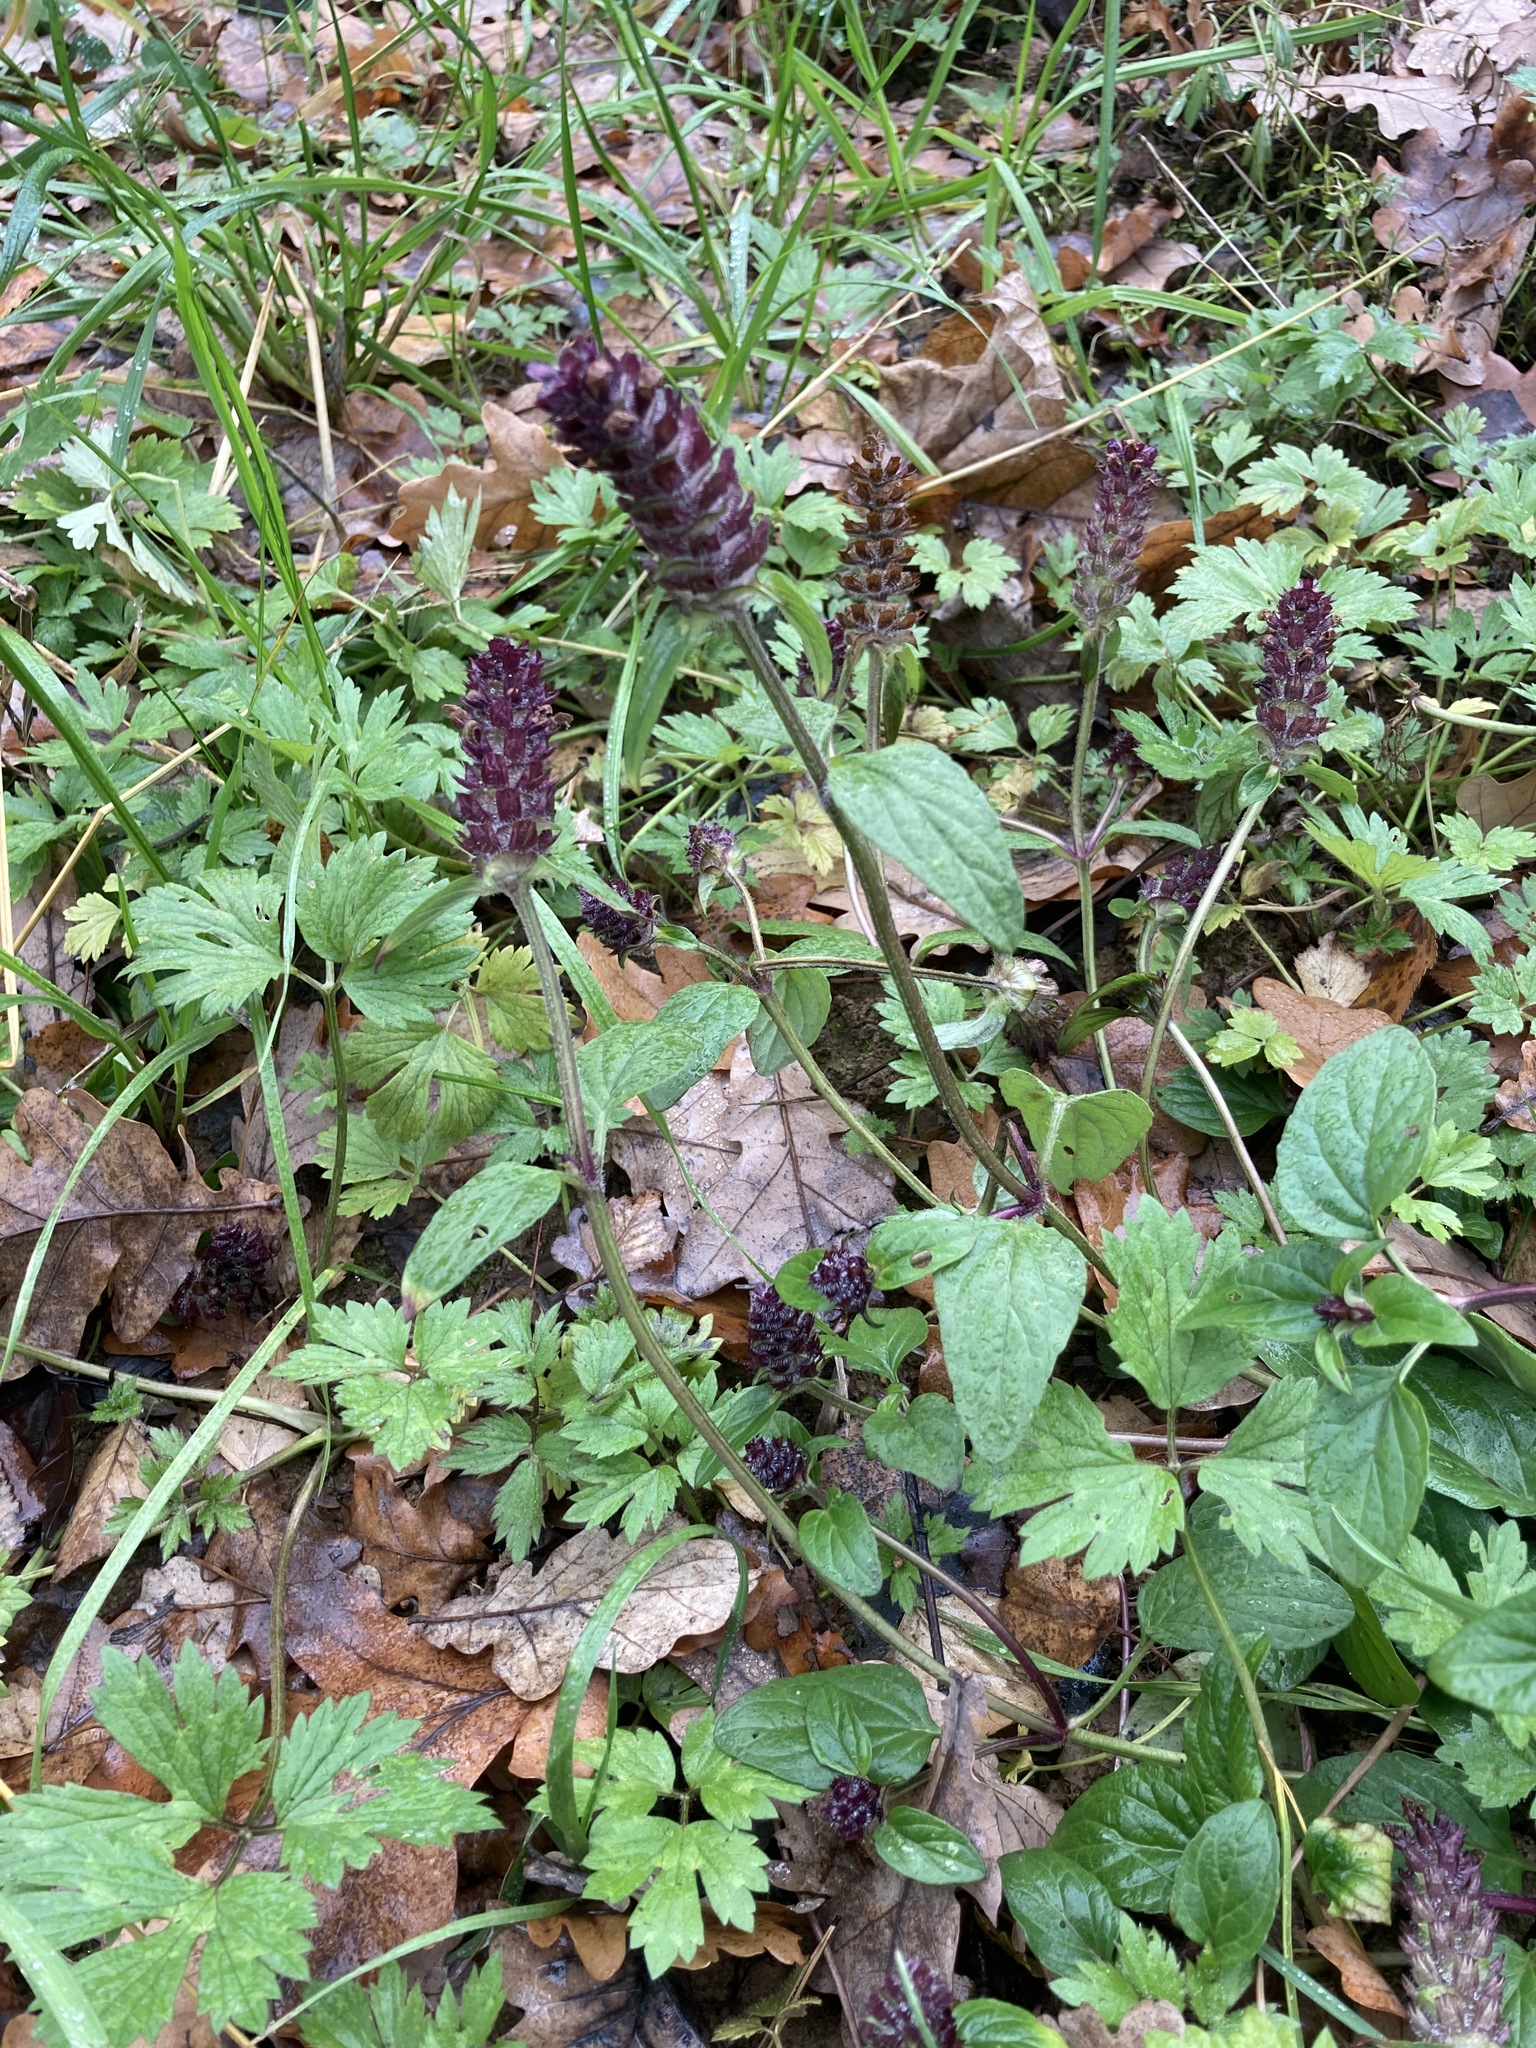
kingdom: Plantae
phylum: Tracheophyta
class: Magnoliopsida
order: Lamiales
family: Lamiaceae
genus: Prunella
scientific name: Prunella vulgaris
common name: Heal-all
